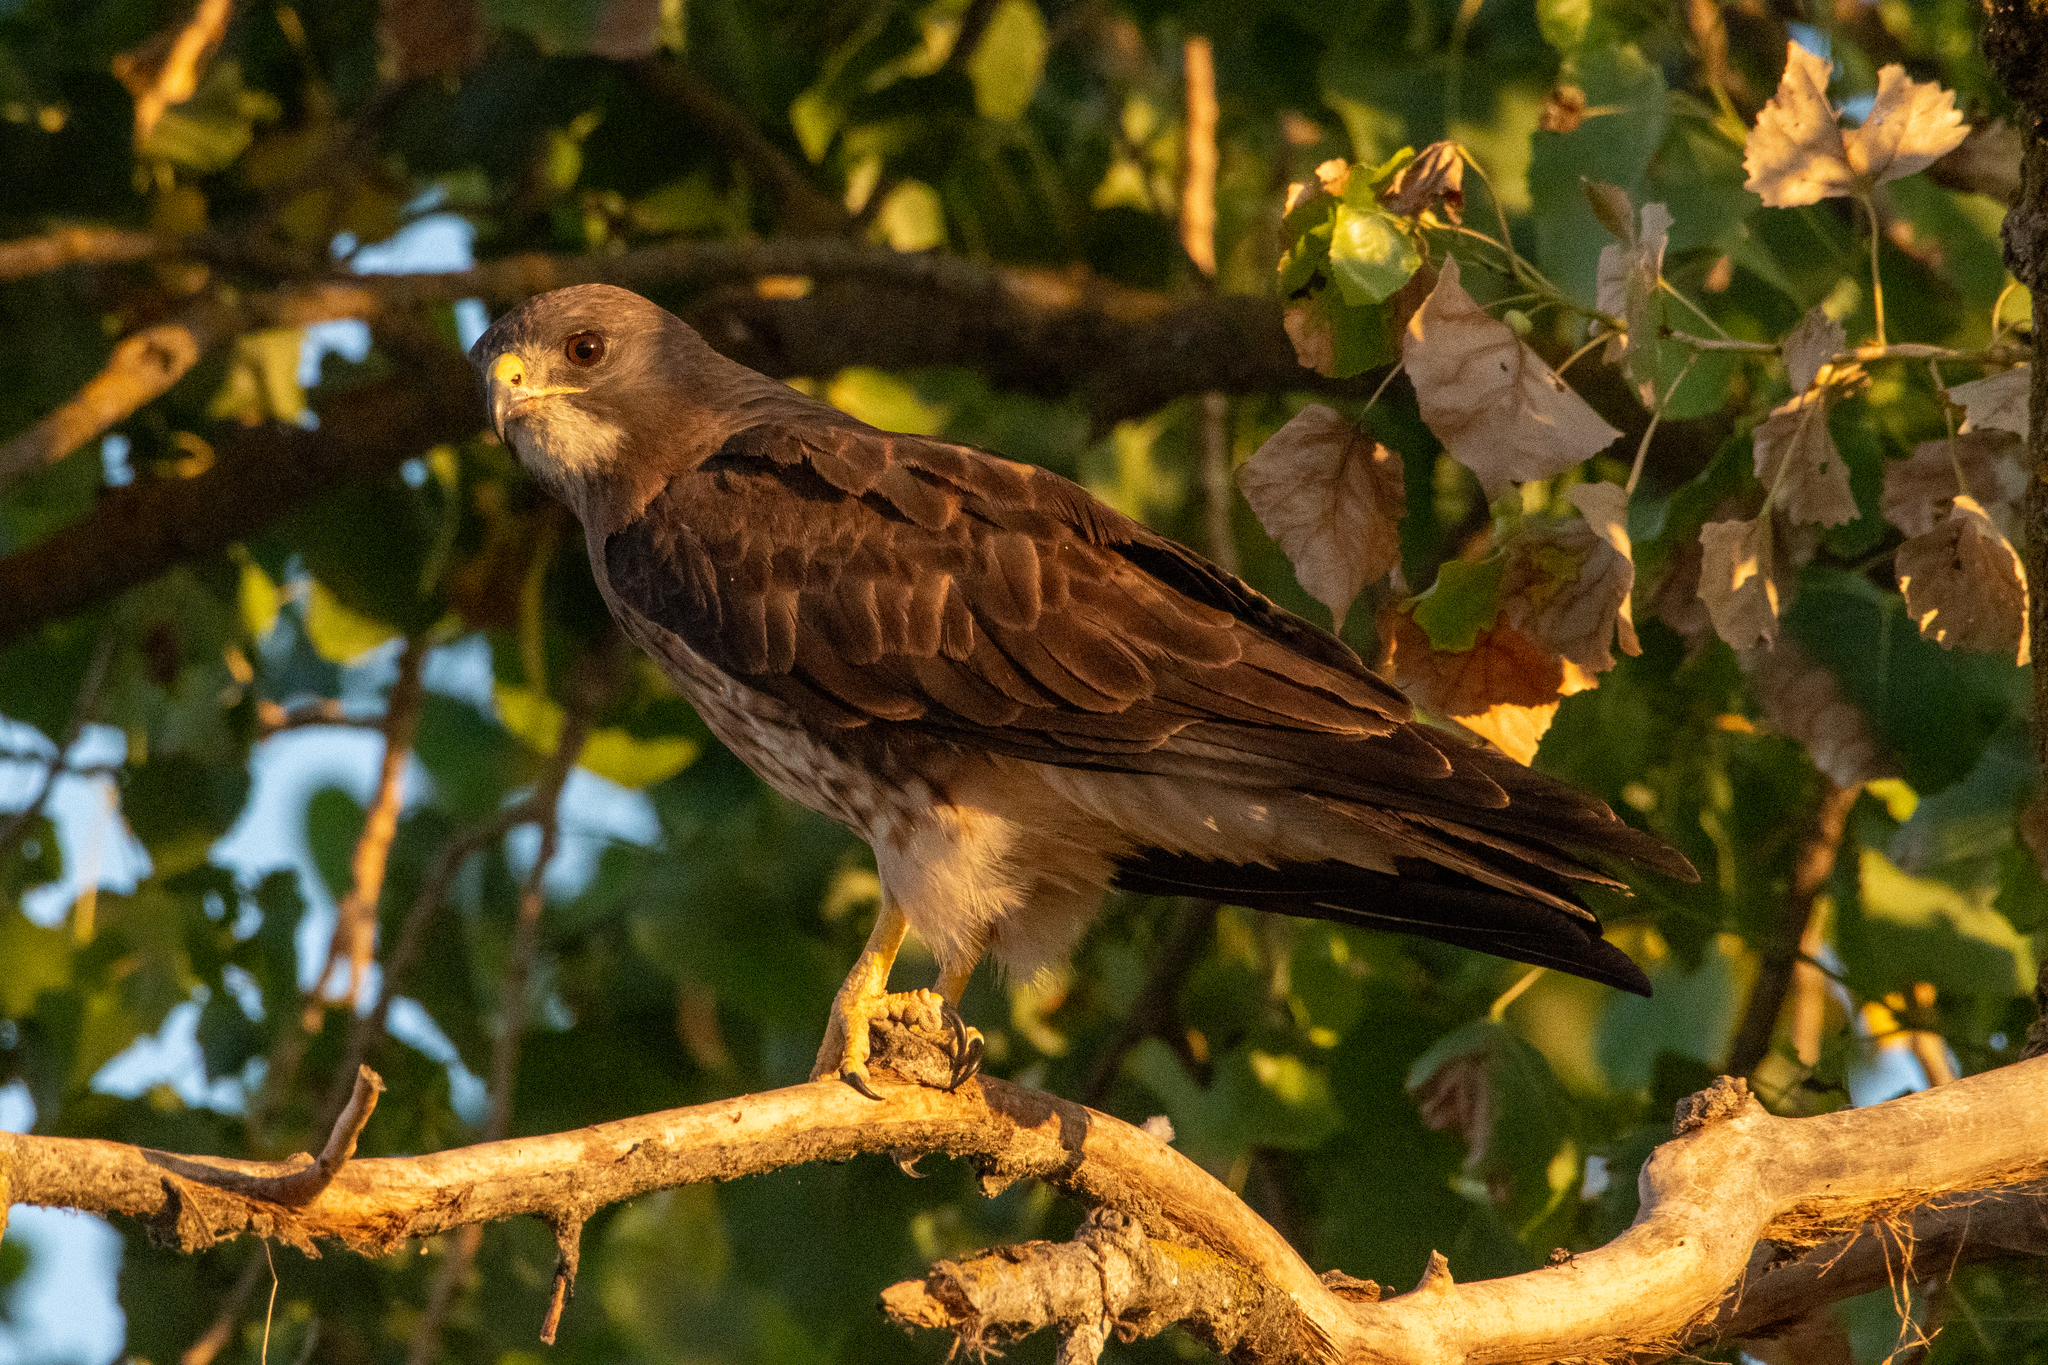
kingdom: Animalia
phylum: Chordata
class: Aves
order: Accipitriformes
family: Accipitridae
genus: Buteo
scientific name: Buteo swainsoni
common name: Swainson's hawk
